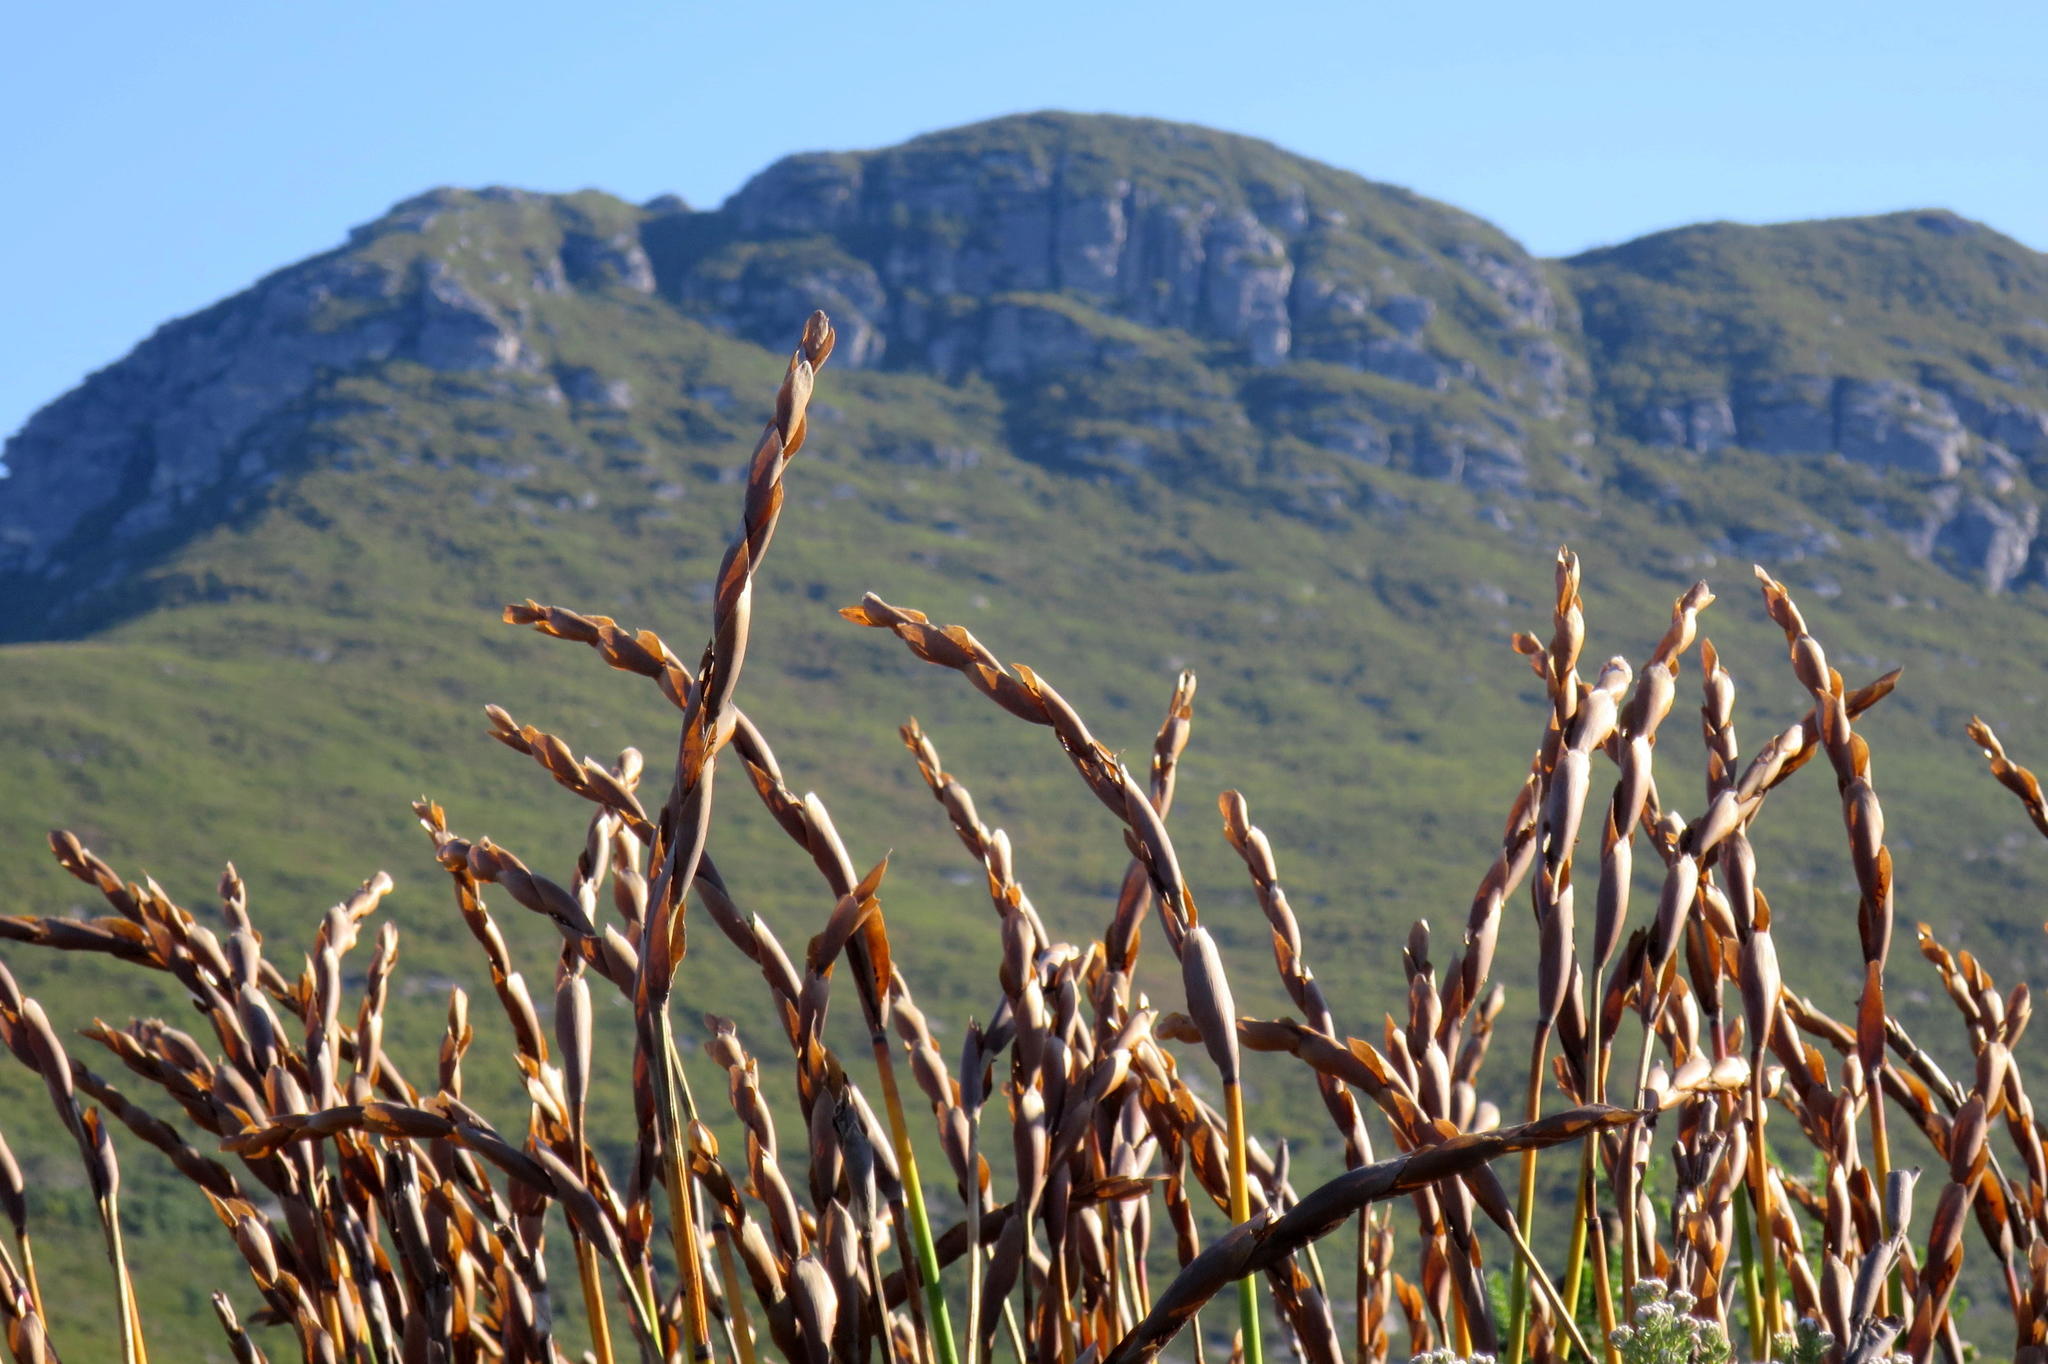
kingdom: Plantae
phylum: Tracheophyta
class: Liliopsida
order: Poales
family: Restionaceae
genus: Elegia
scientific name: Elegia thyrsoidea
